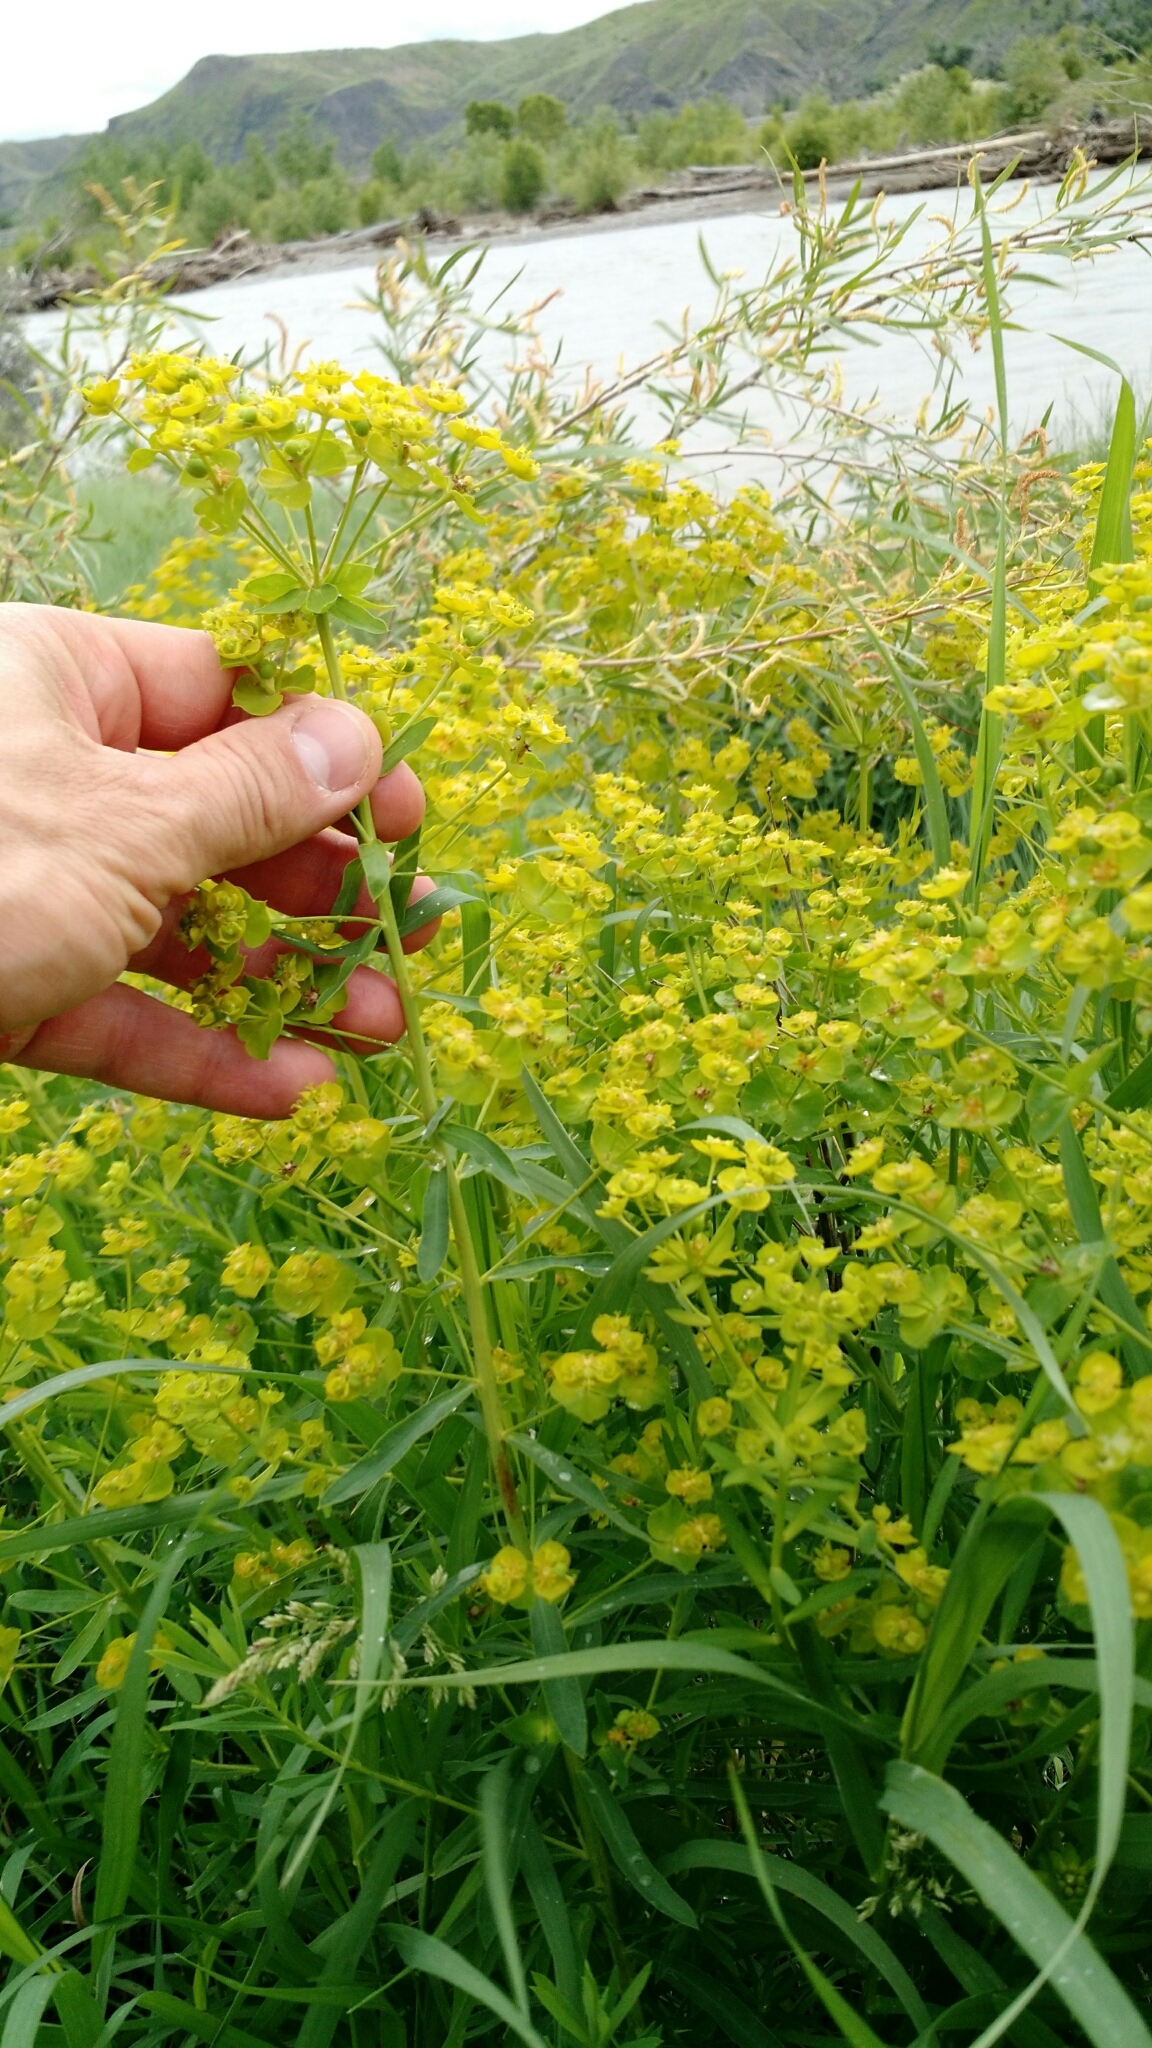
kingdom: Plantae
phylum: Tracheophyta
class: Magnoliopsida
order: Malpighiales
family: Euphorbiaceae
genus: Euphorbia
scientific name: Euphorbia virgata
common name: Leafy spurge
